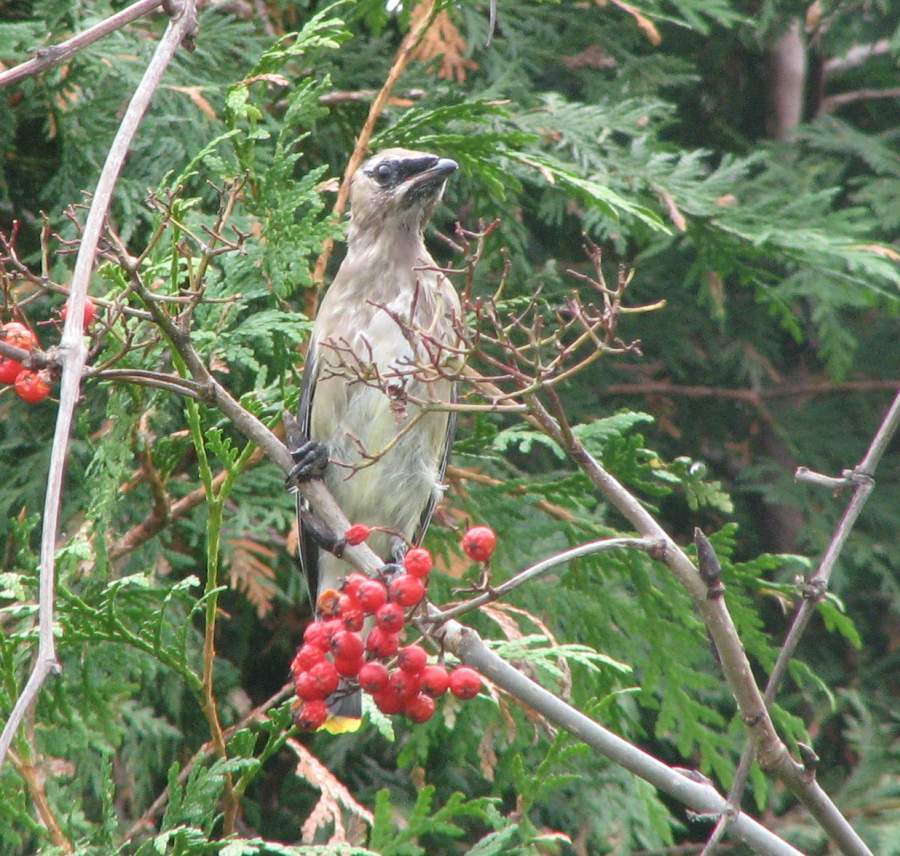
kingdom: Animalia
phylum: Chordata
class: Aves
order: Passeriformes
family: Bombycillidae
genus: Bombycilla
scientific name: Bombycilla cedrorum
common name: Cedar waxwing
